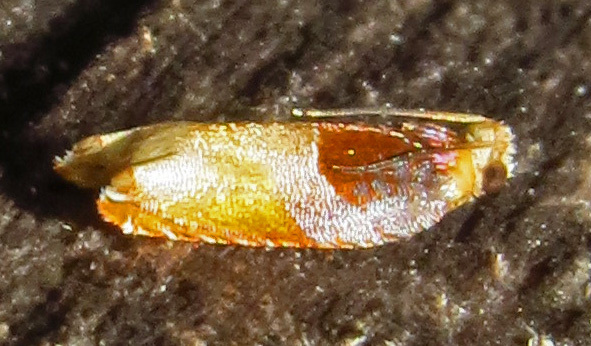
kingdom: Animalia
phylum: Arthropoda
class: Insecta
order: Lepidoptera
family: Tortricidae
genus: Ancylis
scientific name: Ancylis divisana
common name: Two-toned ancylis moth
